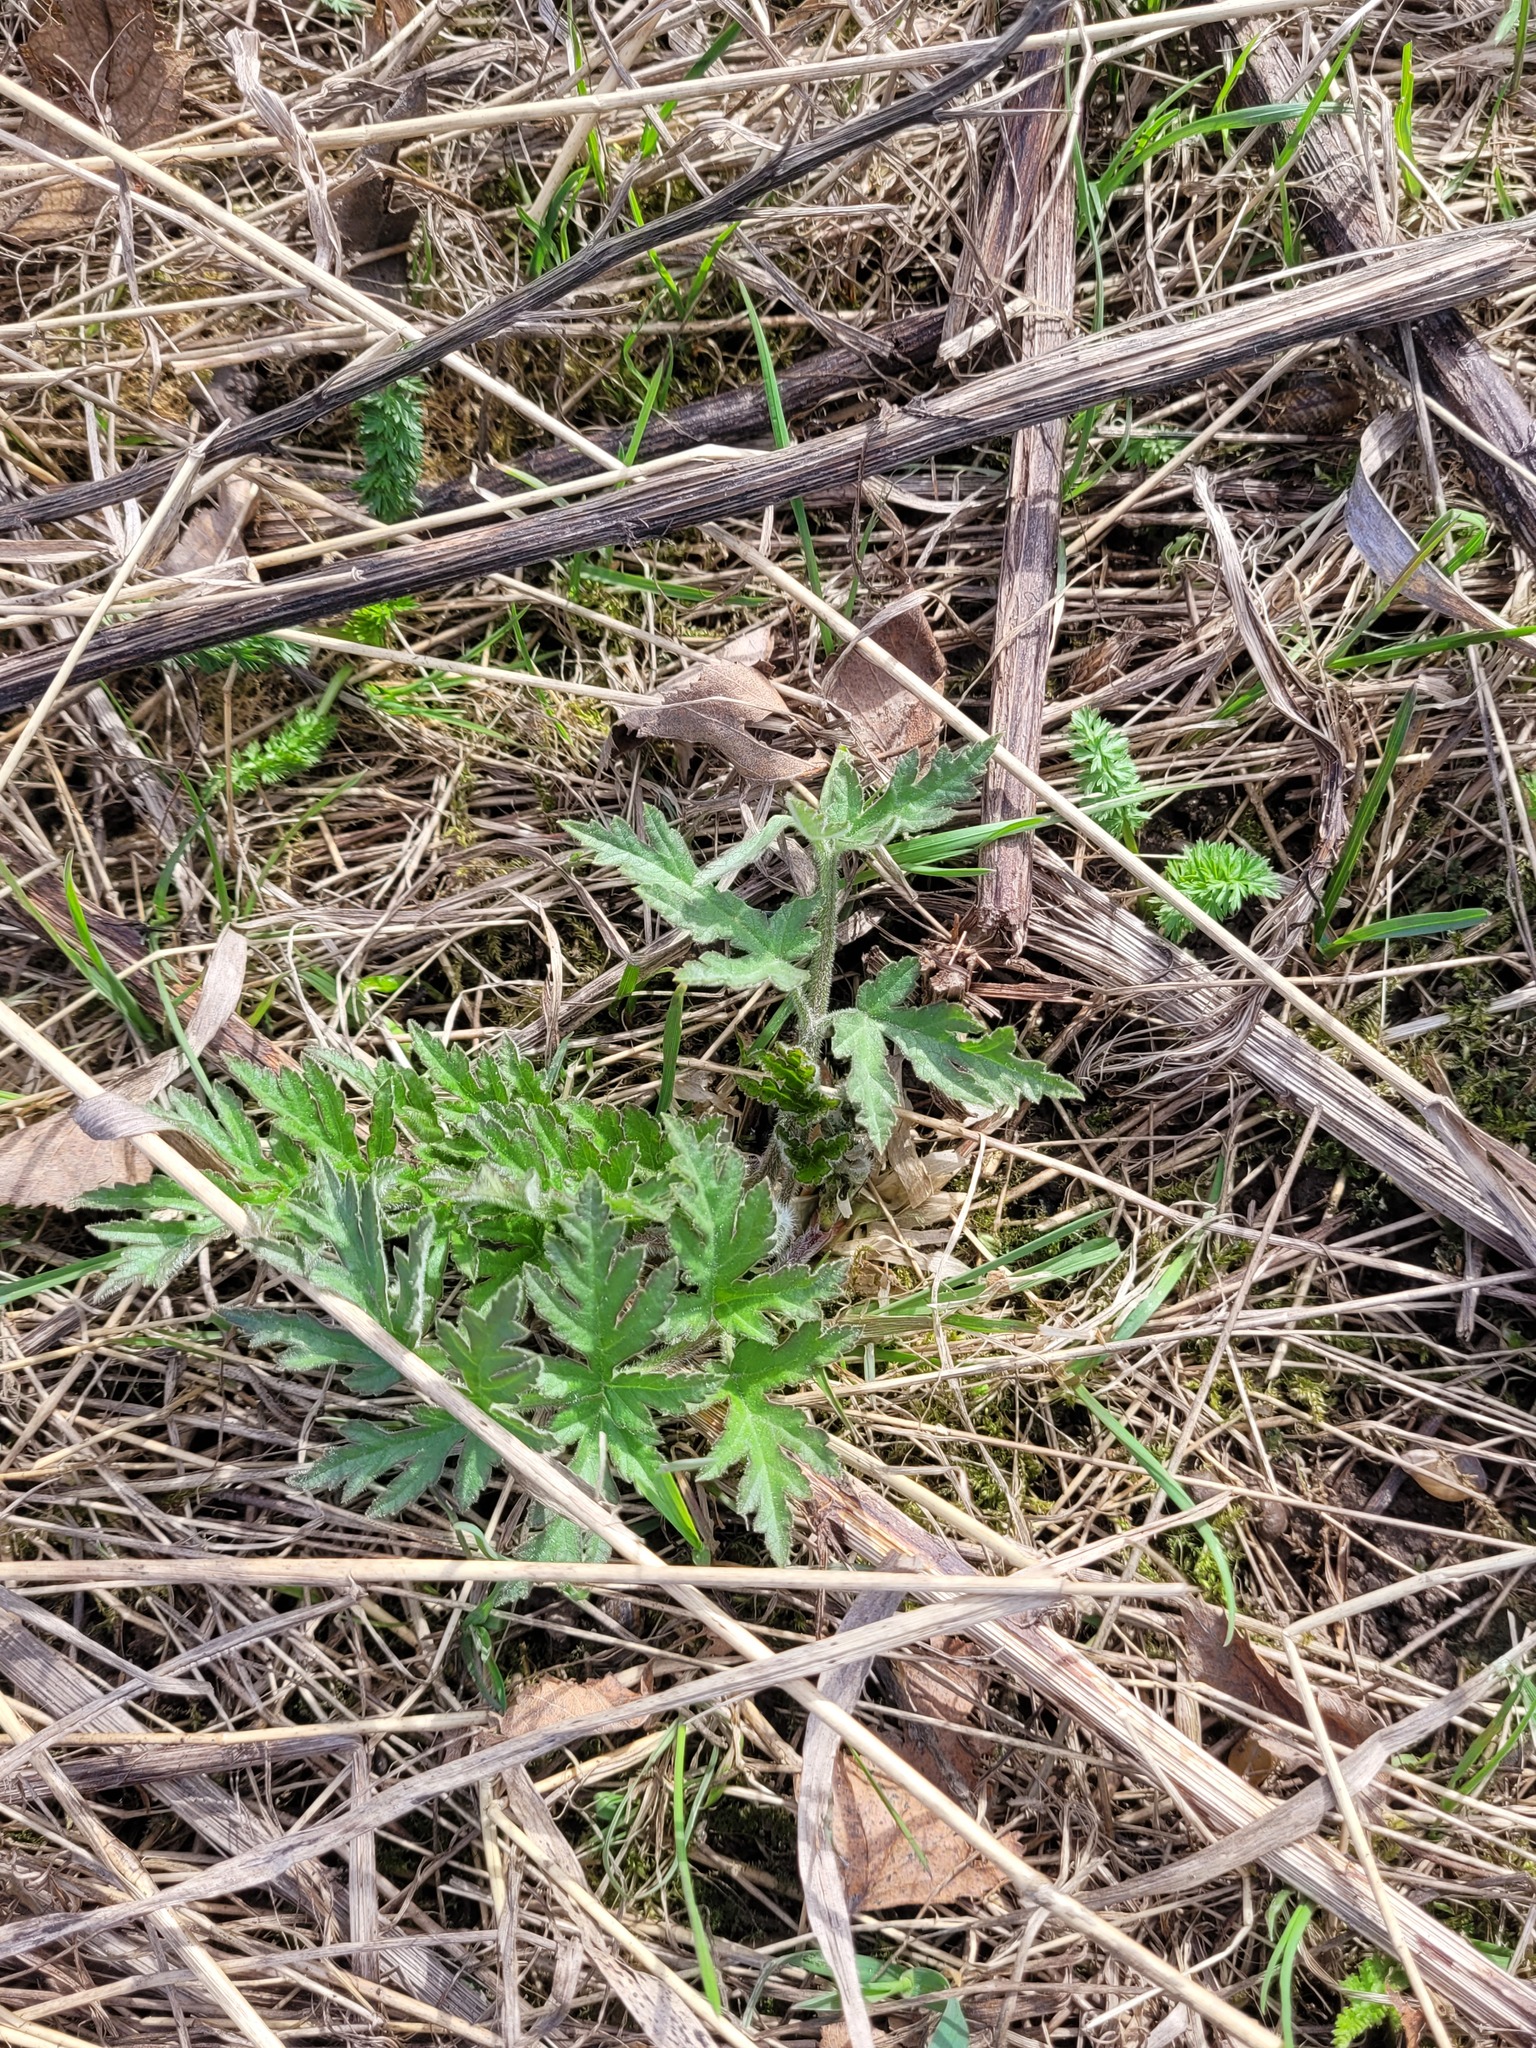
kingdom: Plantae
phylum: Tracheophyta
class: Magnoliopsida
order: Apiales
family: Apiaceae
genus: Heracleum
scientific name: Heracleum sphondylium
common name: Hogweed
